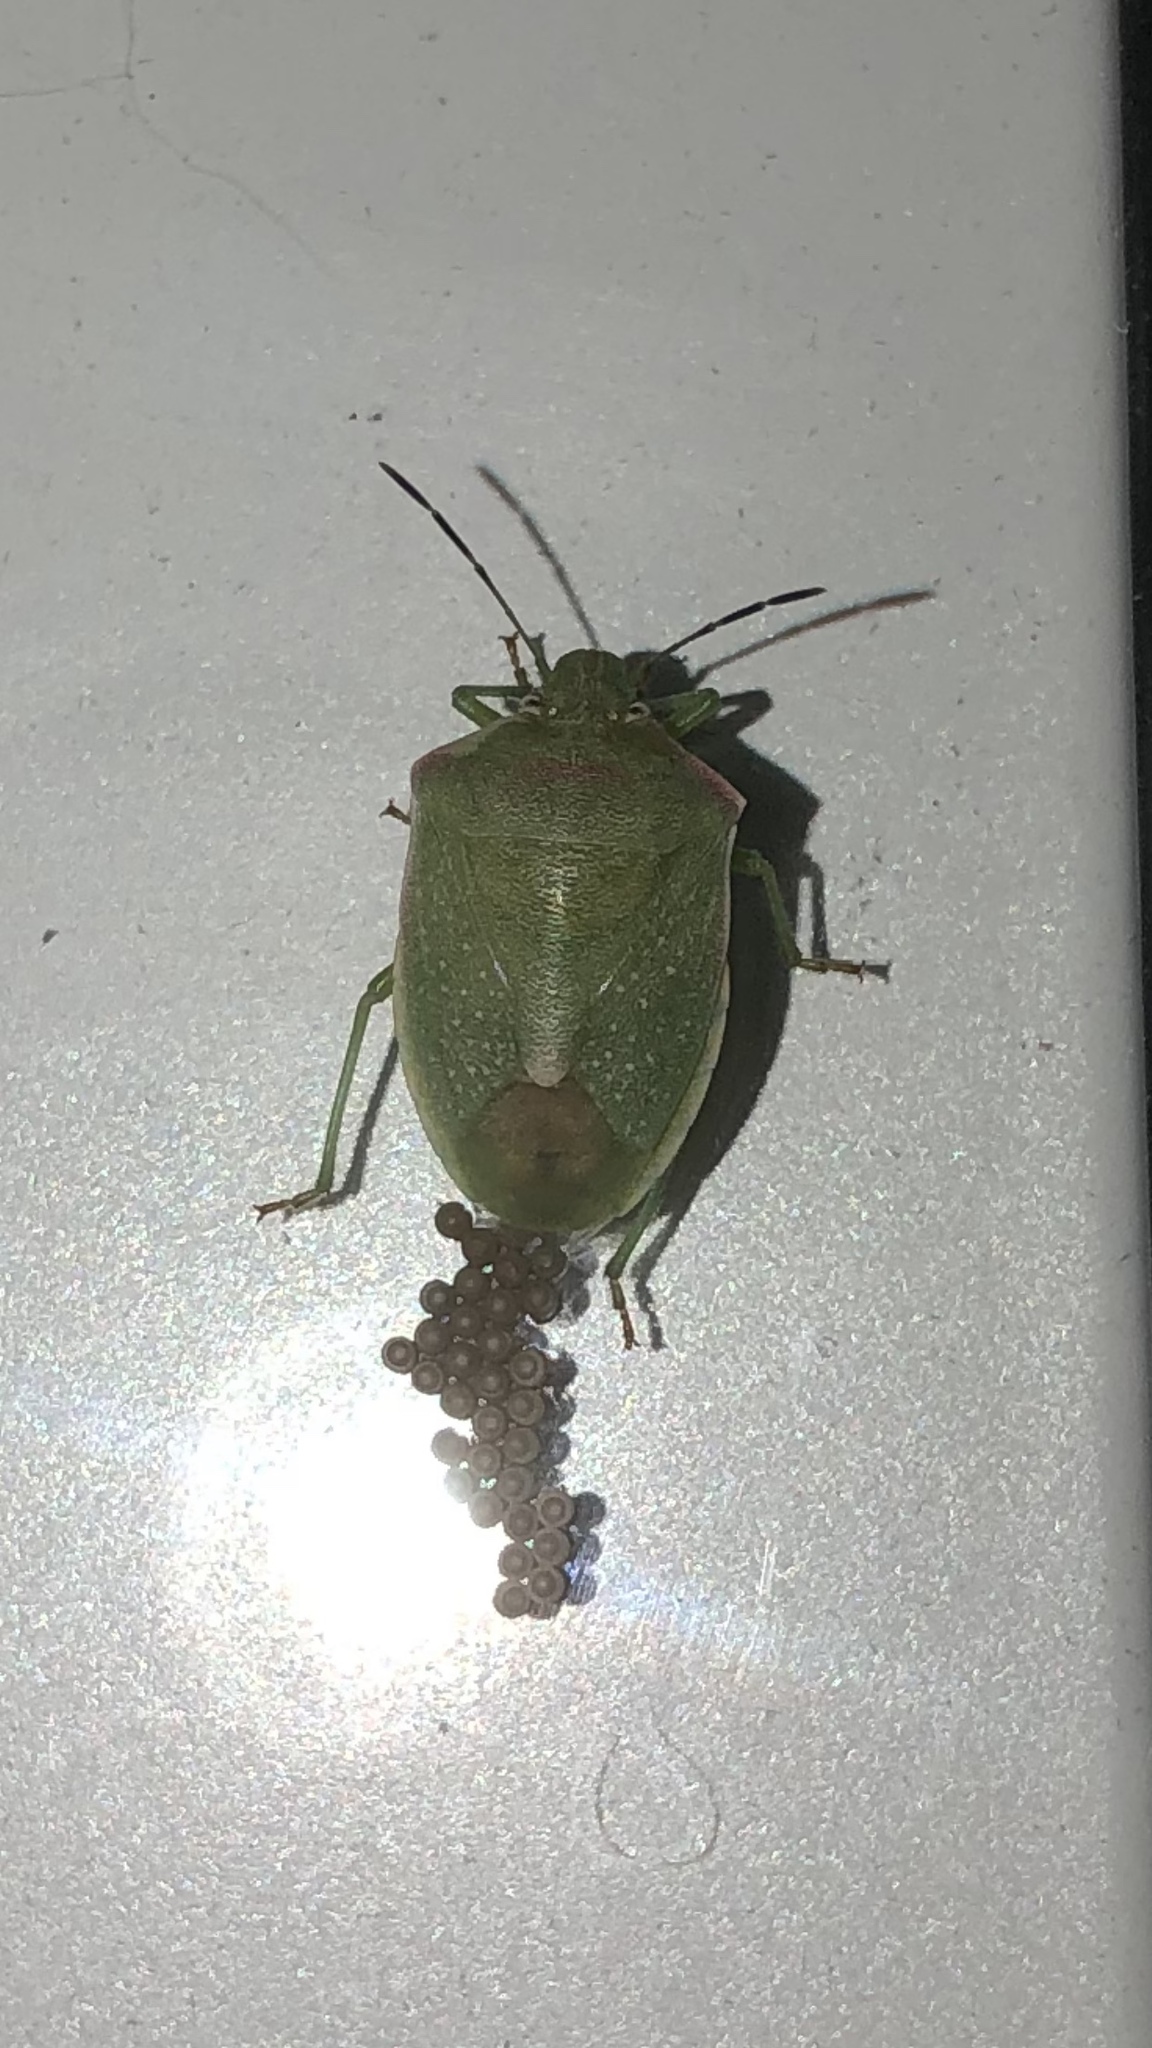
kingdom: Animalia
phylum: Arthropoda
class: Insecta
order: Hemiptera
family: Pentatomidae
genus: Thyanta
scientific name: Thyanta accerra
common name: Stink bug
